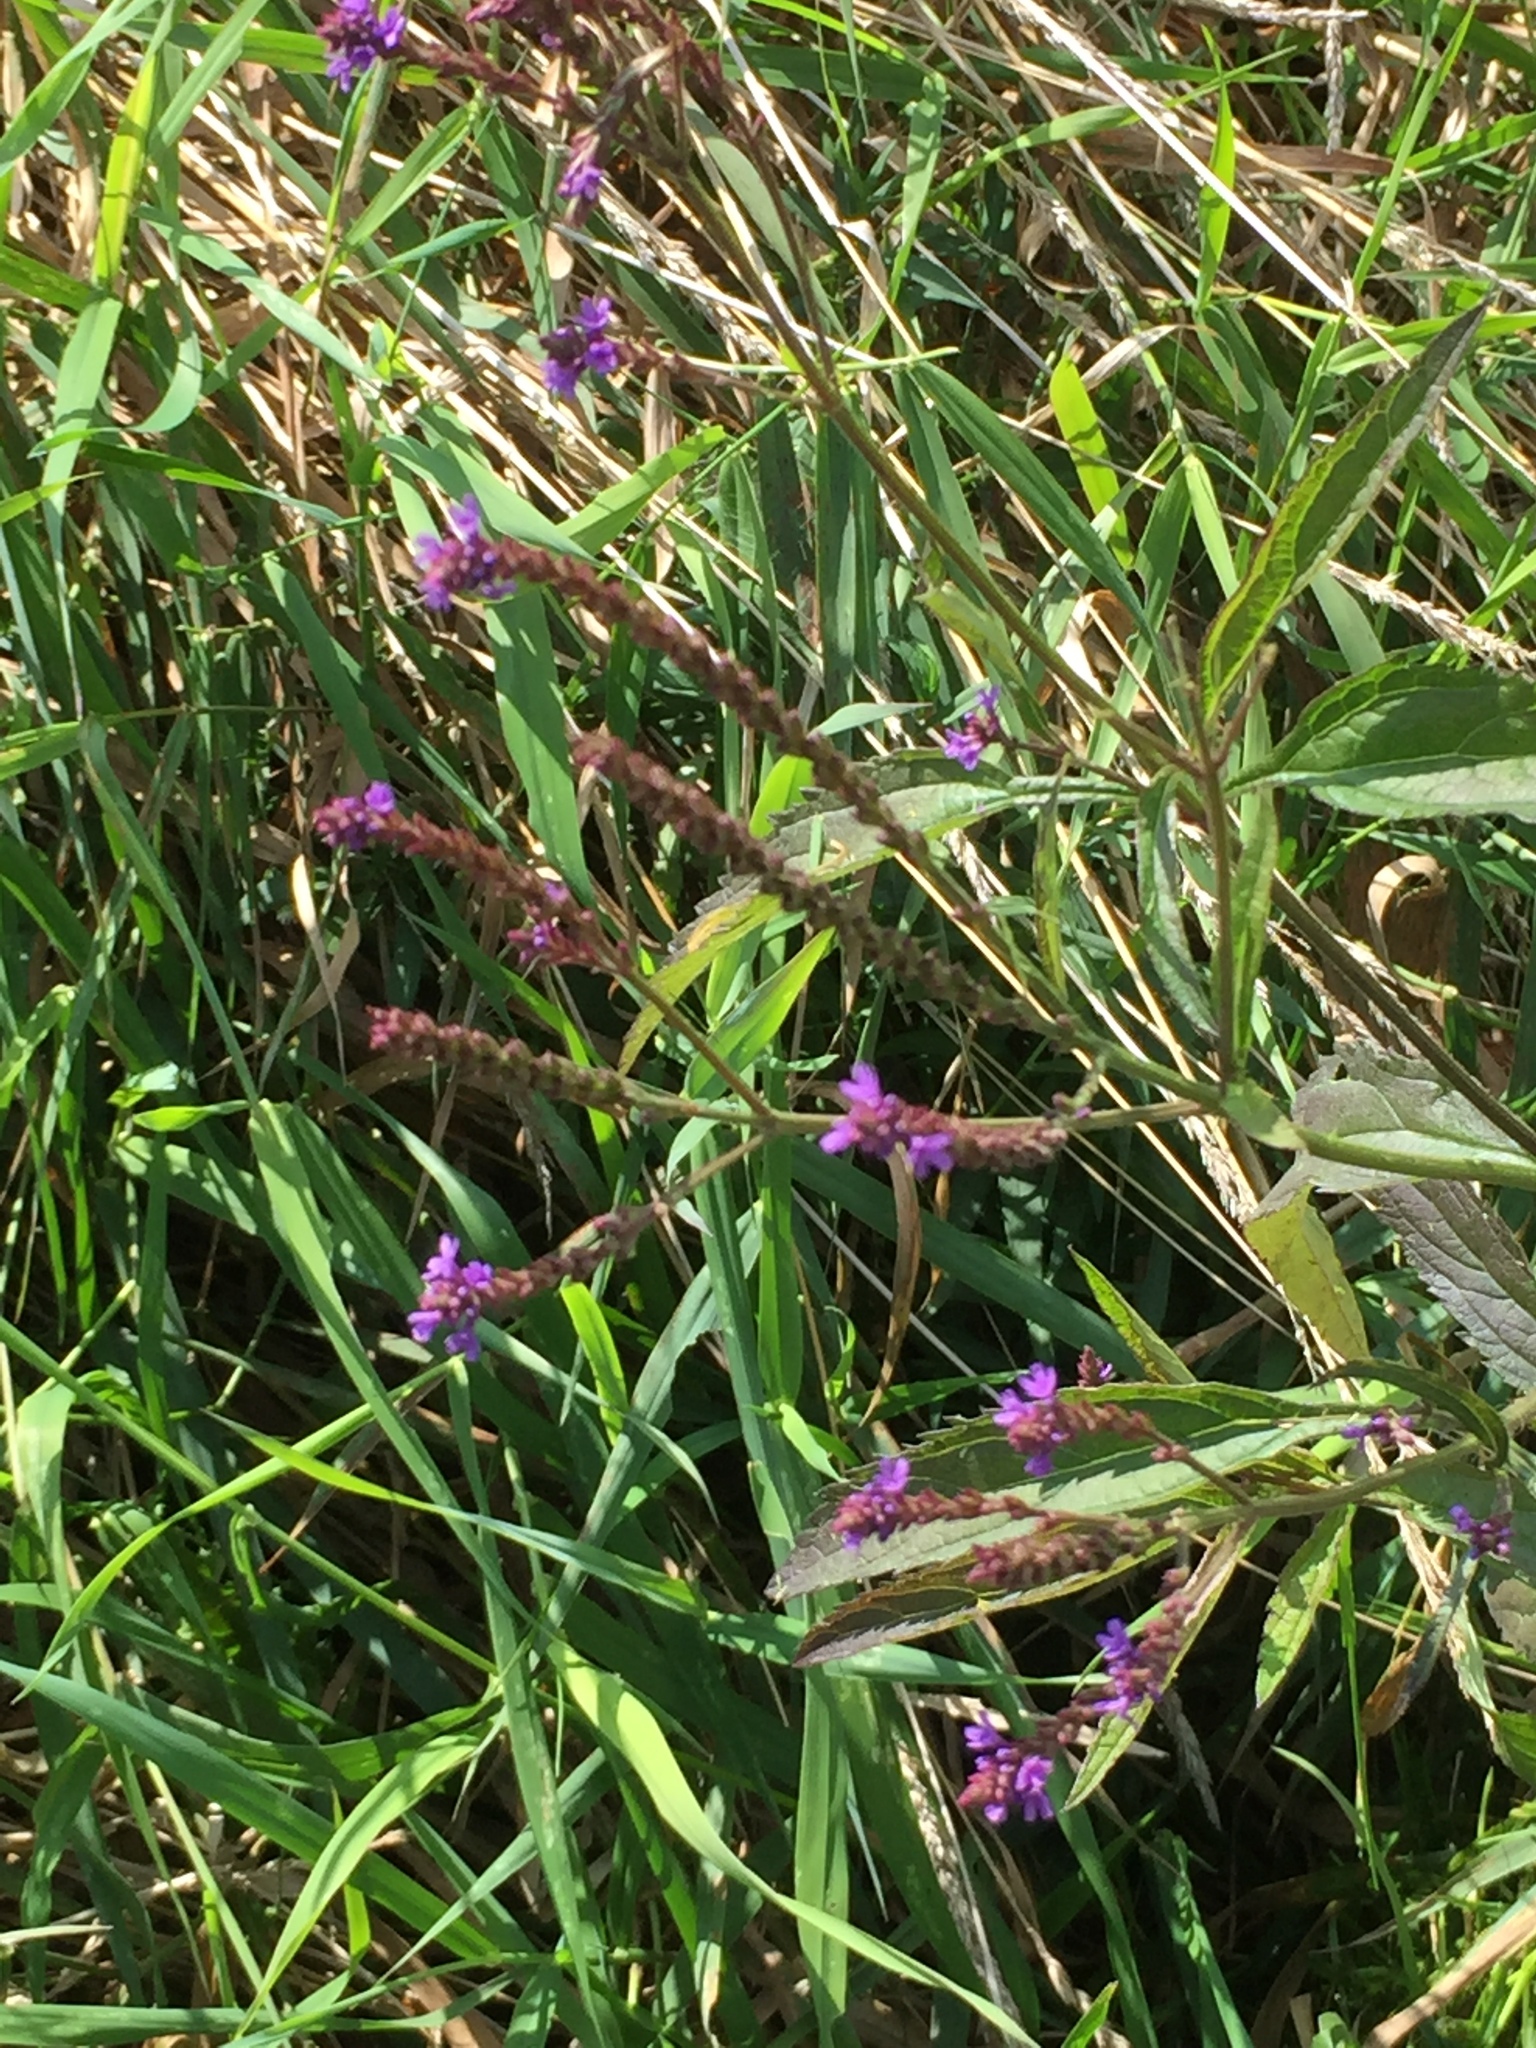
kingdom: Plantae
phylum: Tracheophyta
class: Magnoliopsida
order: Lamiales
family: Verbenaceae
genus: Verbena
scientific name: Verbena hastata
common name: American blue vervain
